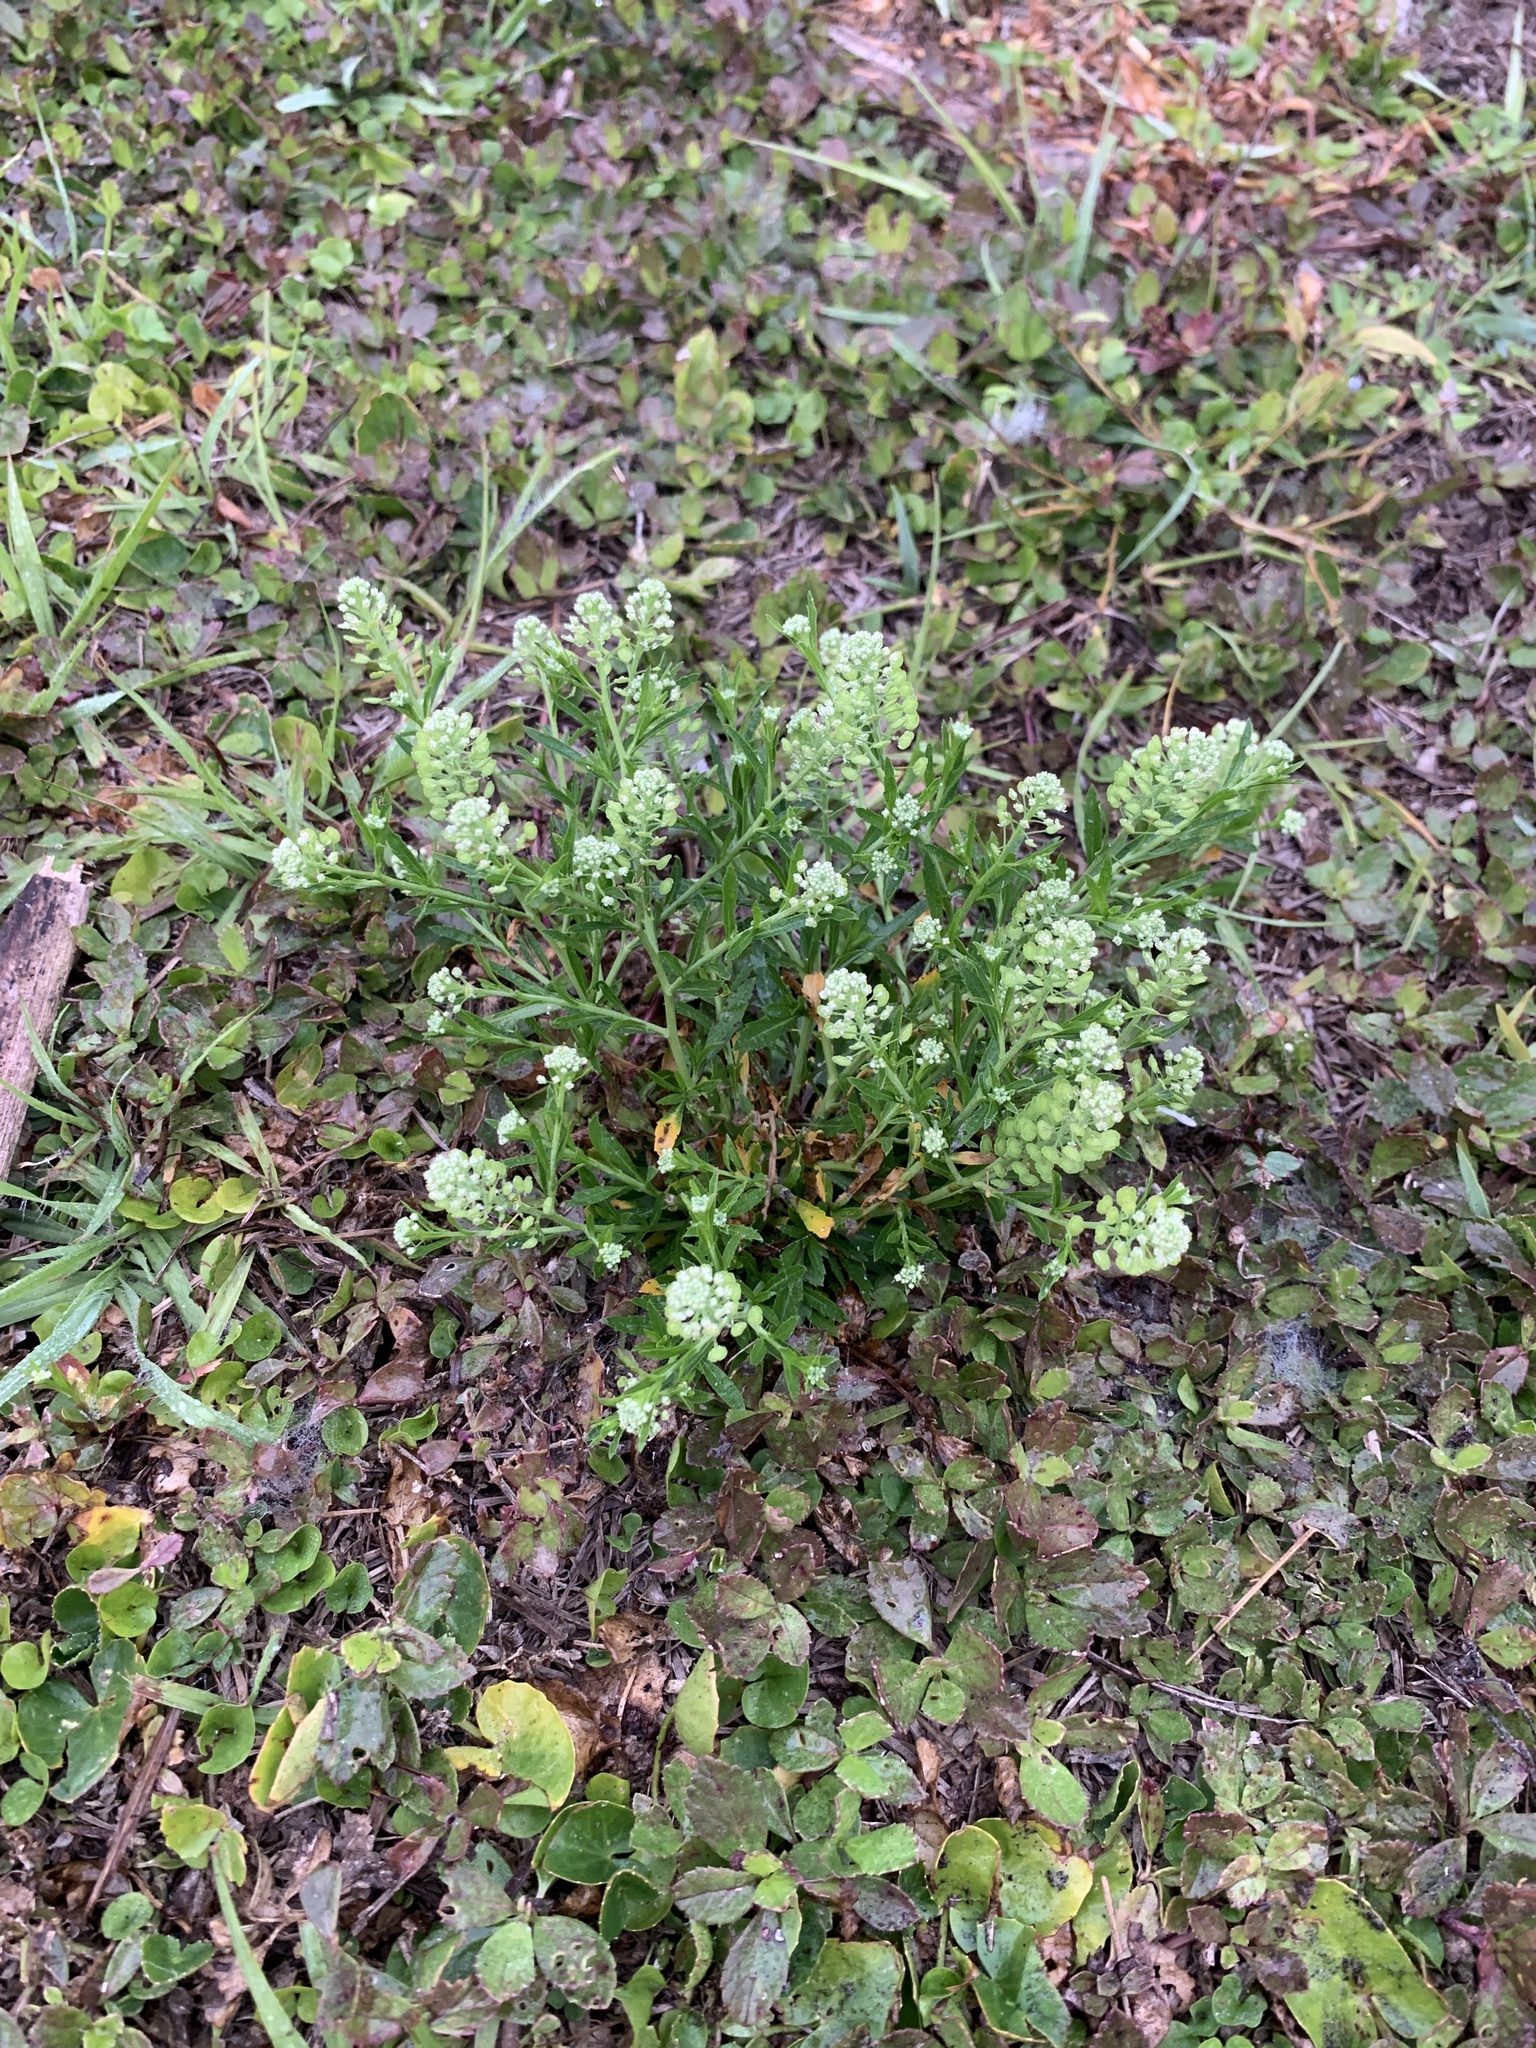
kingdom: Plantae
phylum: Tracheophyta
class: Magnoliopsida
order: Brassicales
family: Brassicaceae
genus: Lepidium
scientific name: Lepidium virginicum
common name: Least pepperwort
